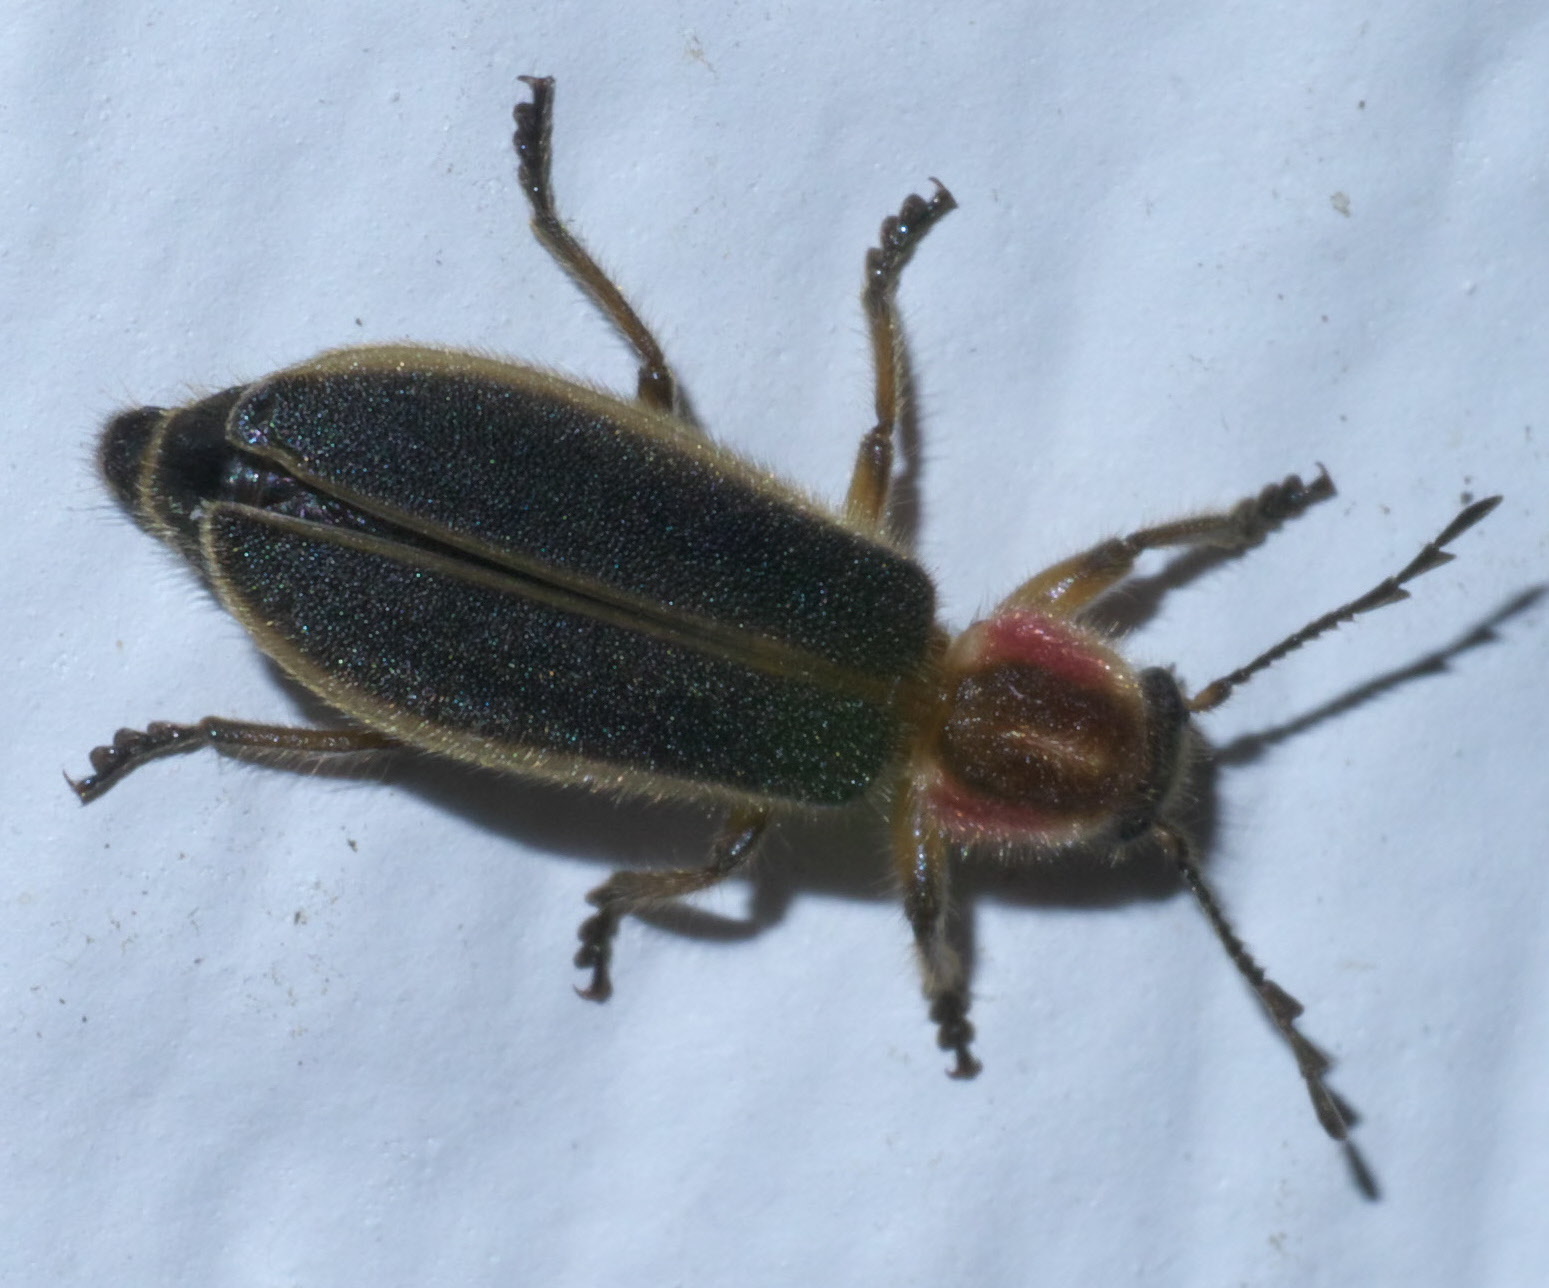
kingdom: Animalia
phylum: Arthropoda
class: Insecta
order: Coleoptera
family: Cleridae
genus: Chariessa
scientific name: Chariessa pilosa
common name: Pilose checkered beetle
